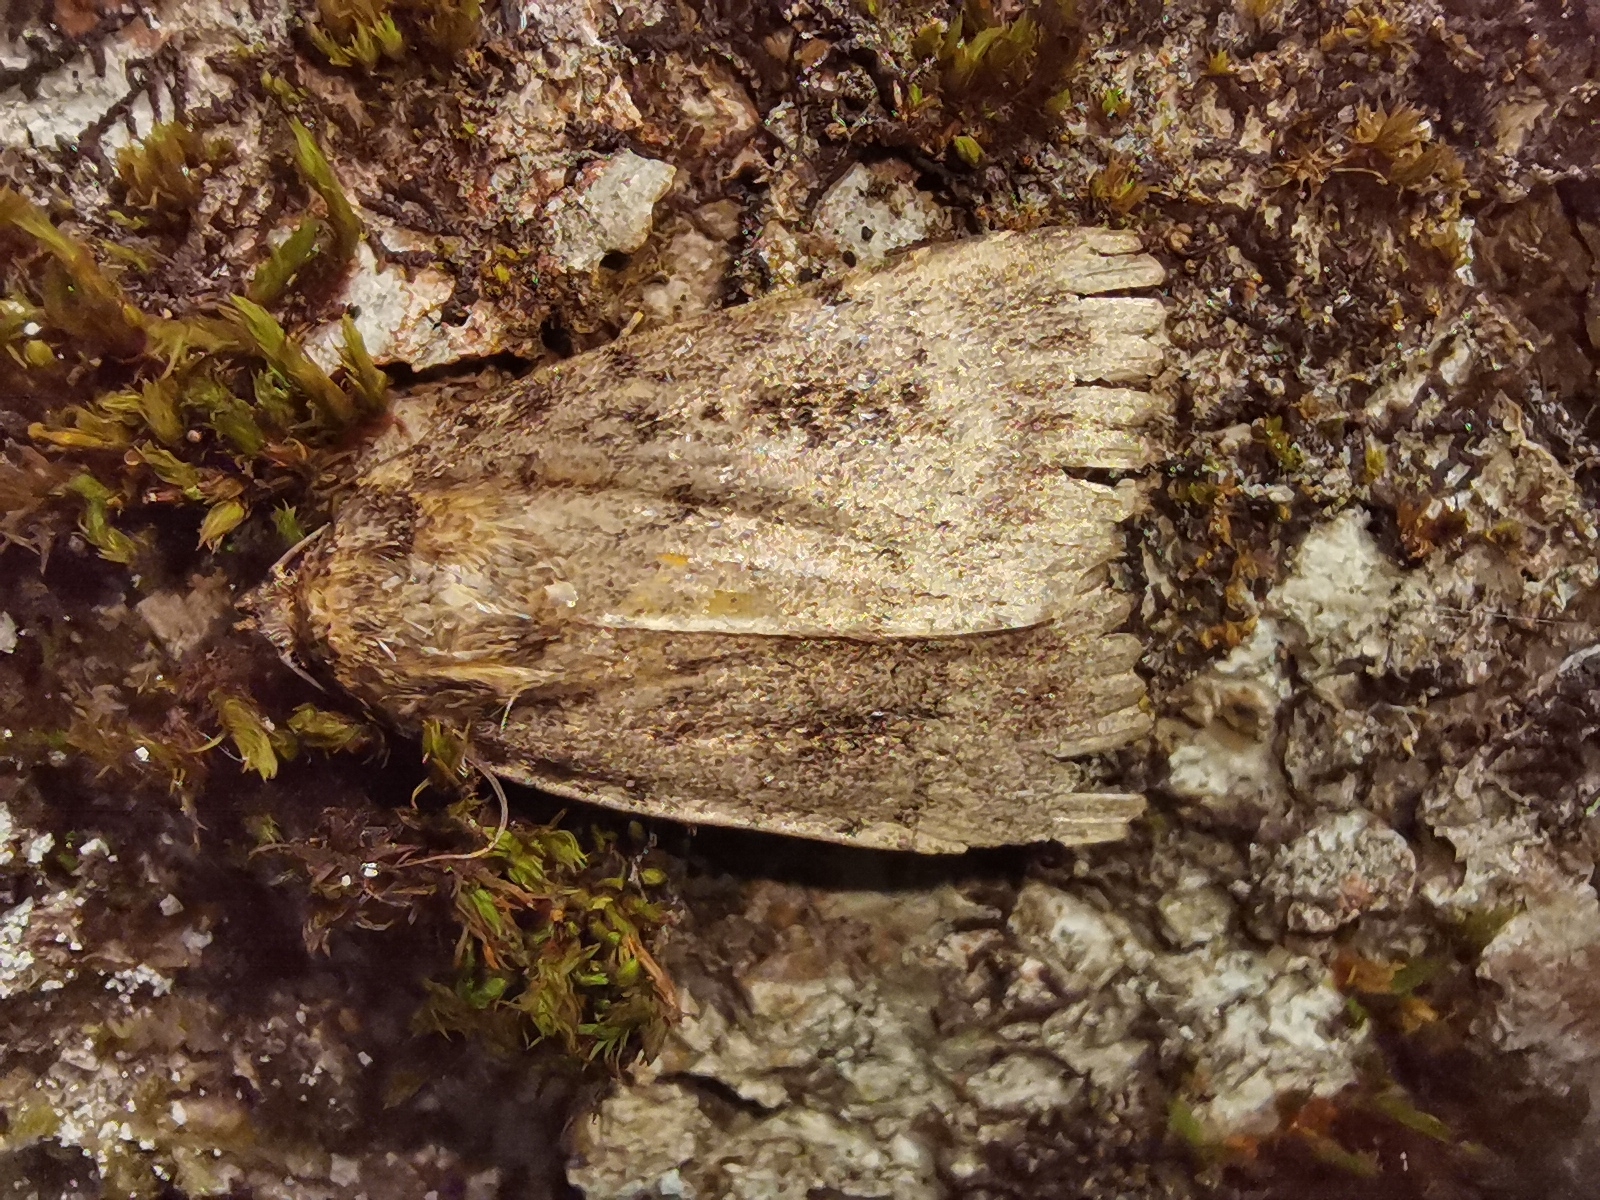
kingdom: Animalia
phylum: Arthropoda
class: Insecta
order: Lepidoptera
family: Noctuidae
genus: Amphipyra
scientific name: Amphipyra
